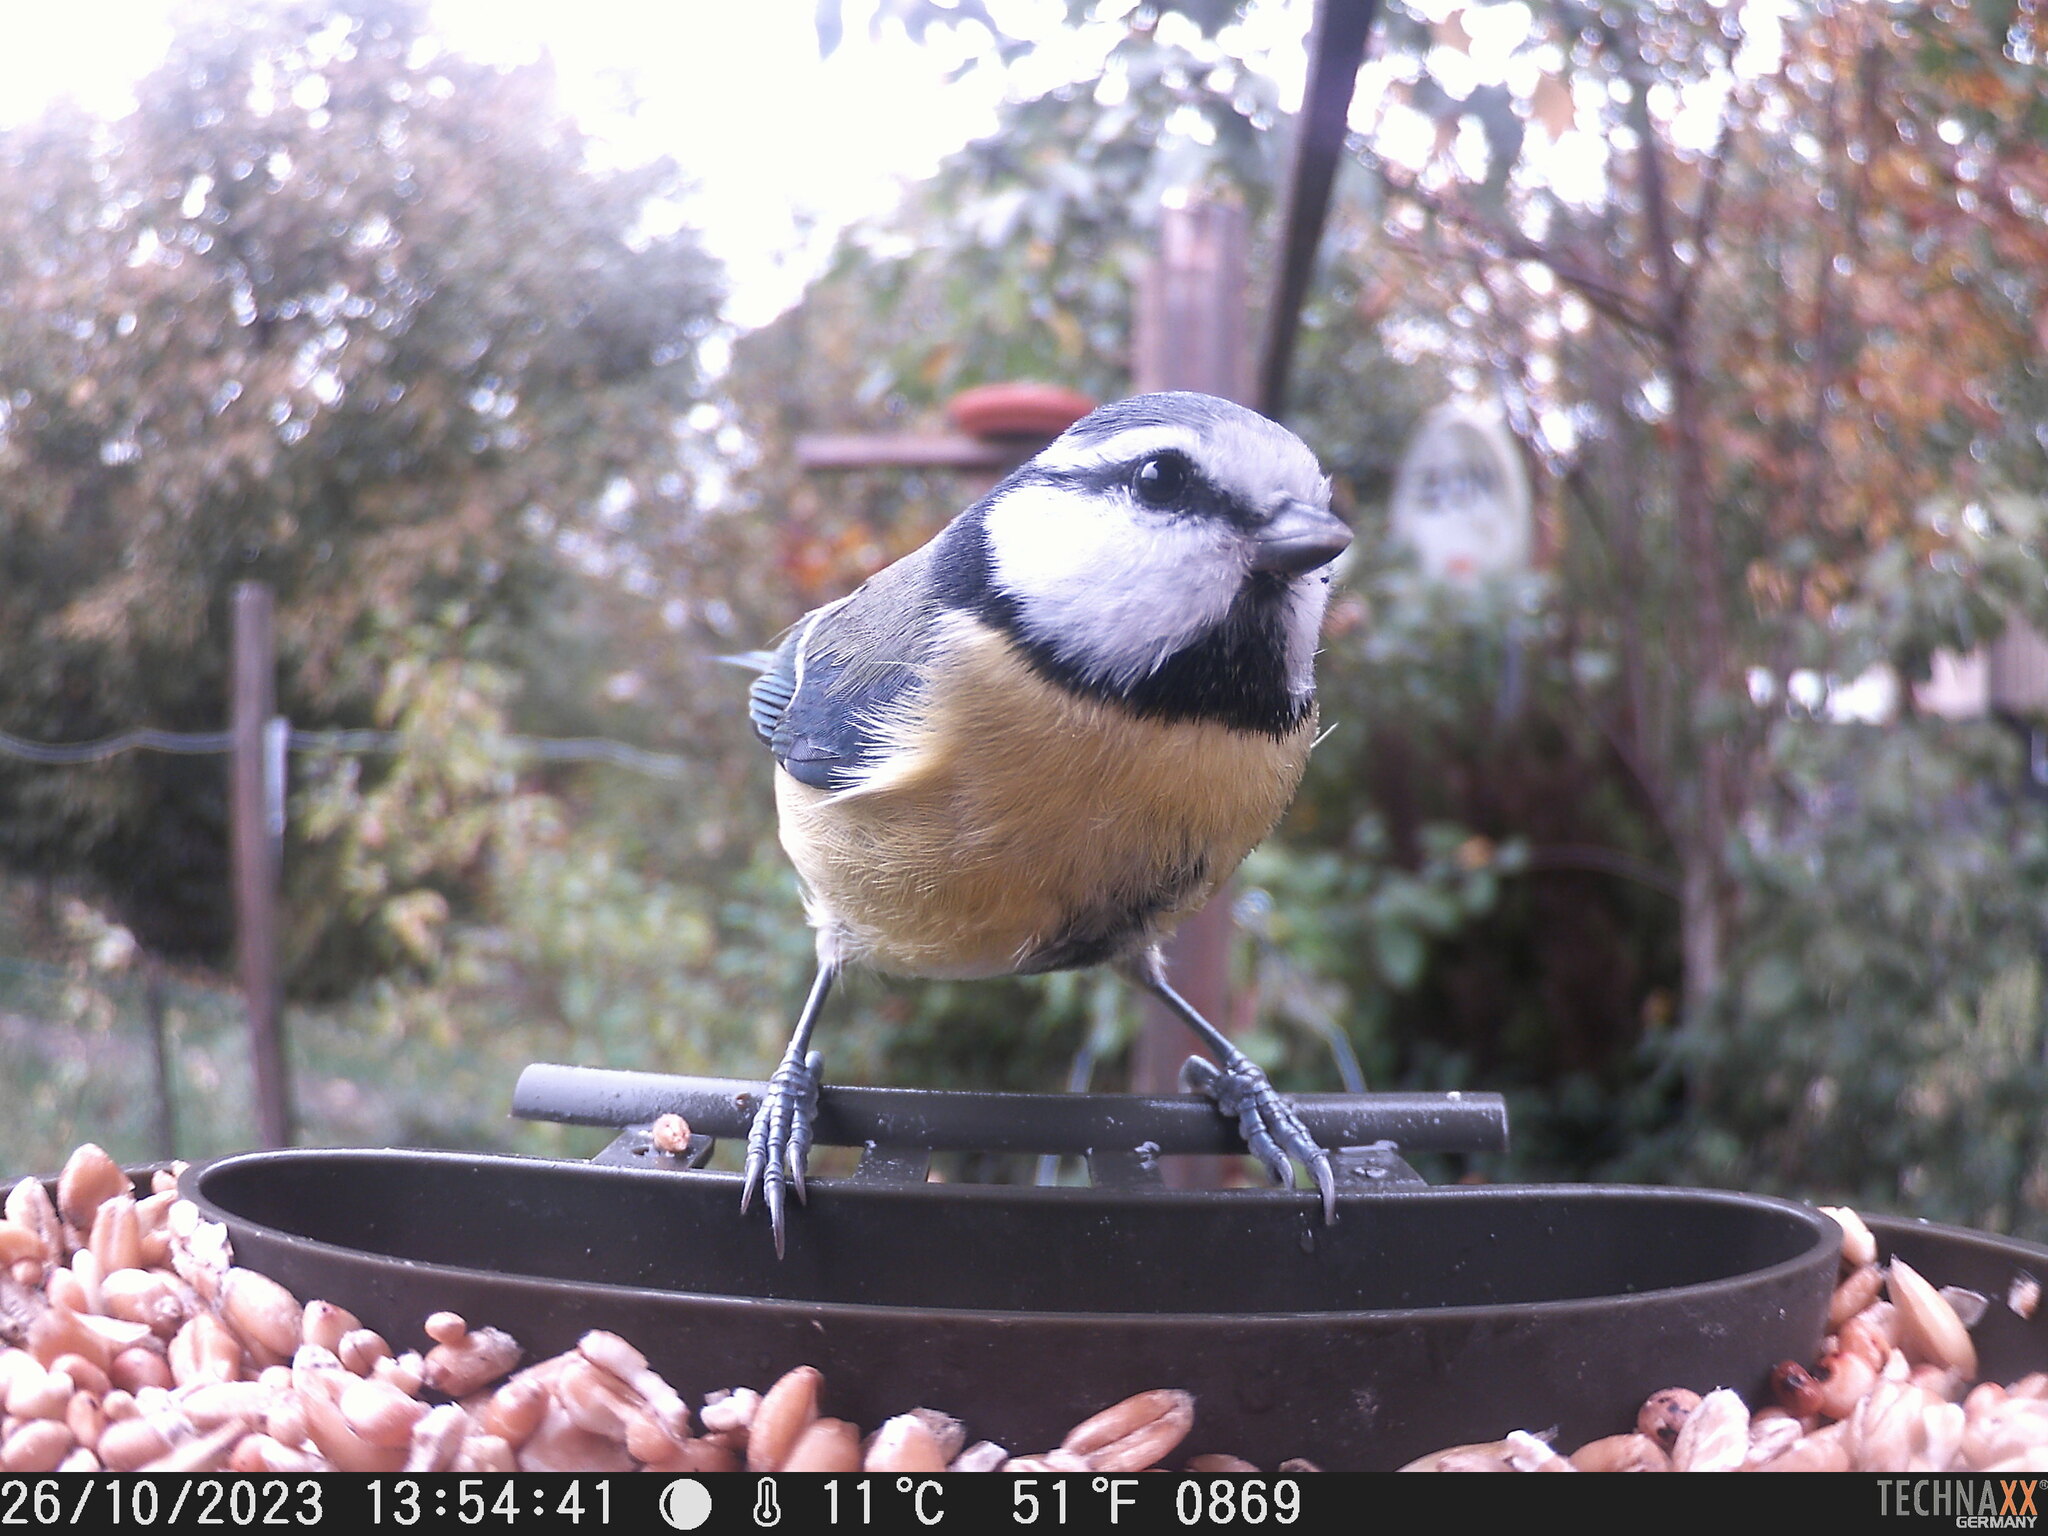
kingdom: Animalia
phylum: Chordata
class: Aves
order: Passeriformes
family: Paridae
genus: Cyanistes
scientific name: Cyanistes caeruleus
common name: Eurasian blue tit
